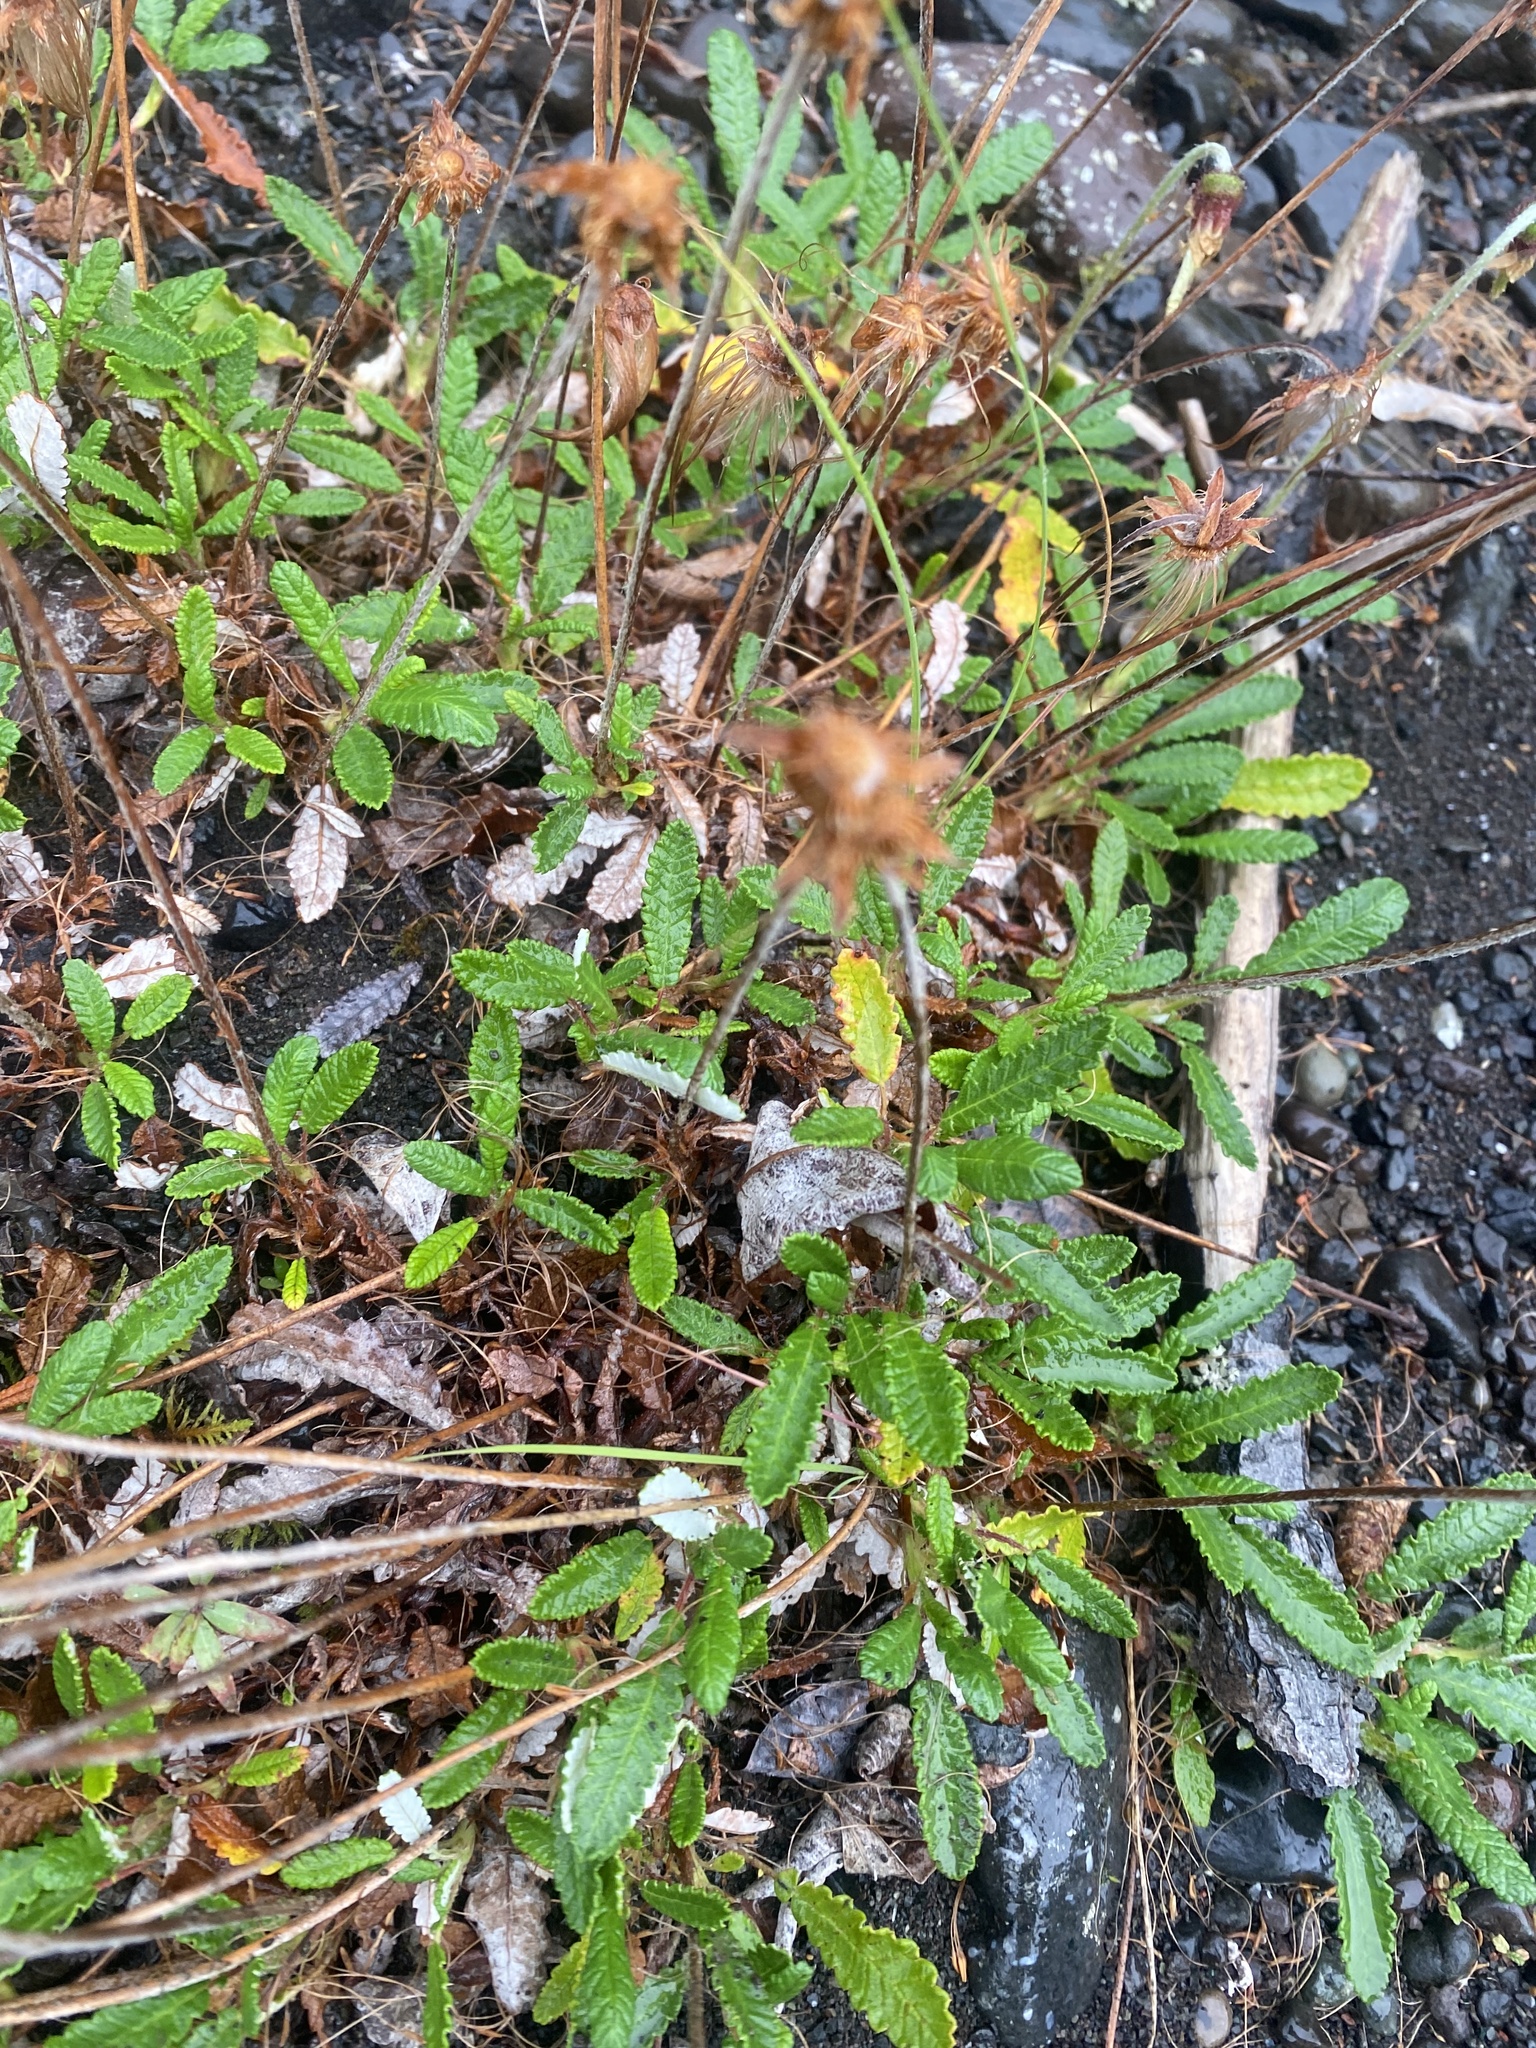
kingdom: Plantae
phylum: Tracheophyta
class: Magnoliopsida
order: Rosales
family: Rosaceae
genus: Dryas
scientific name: Dryas grandis
